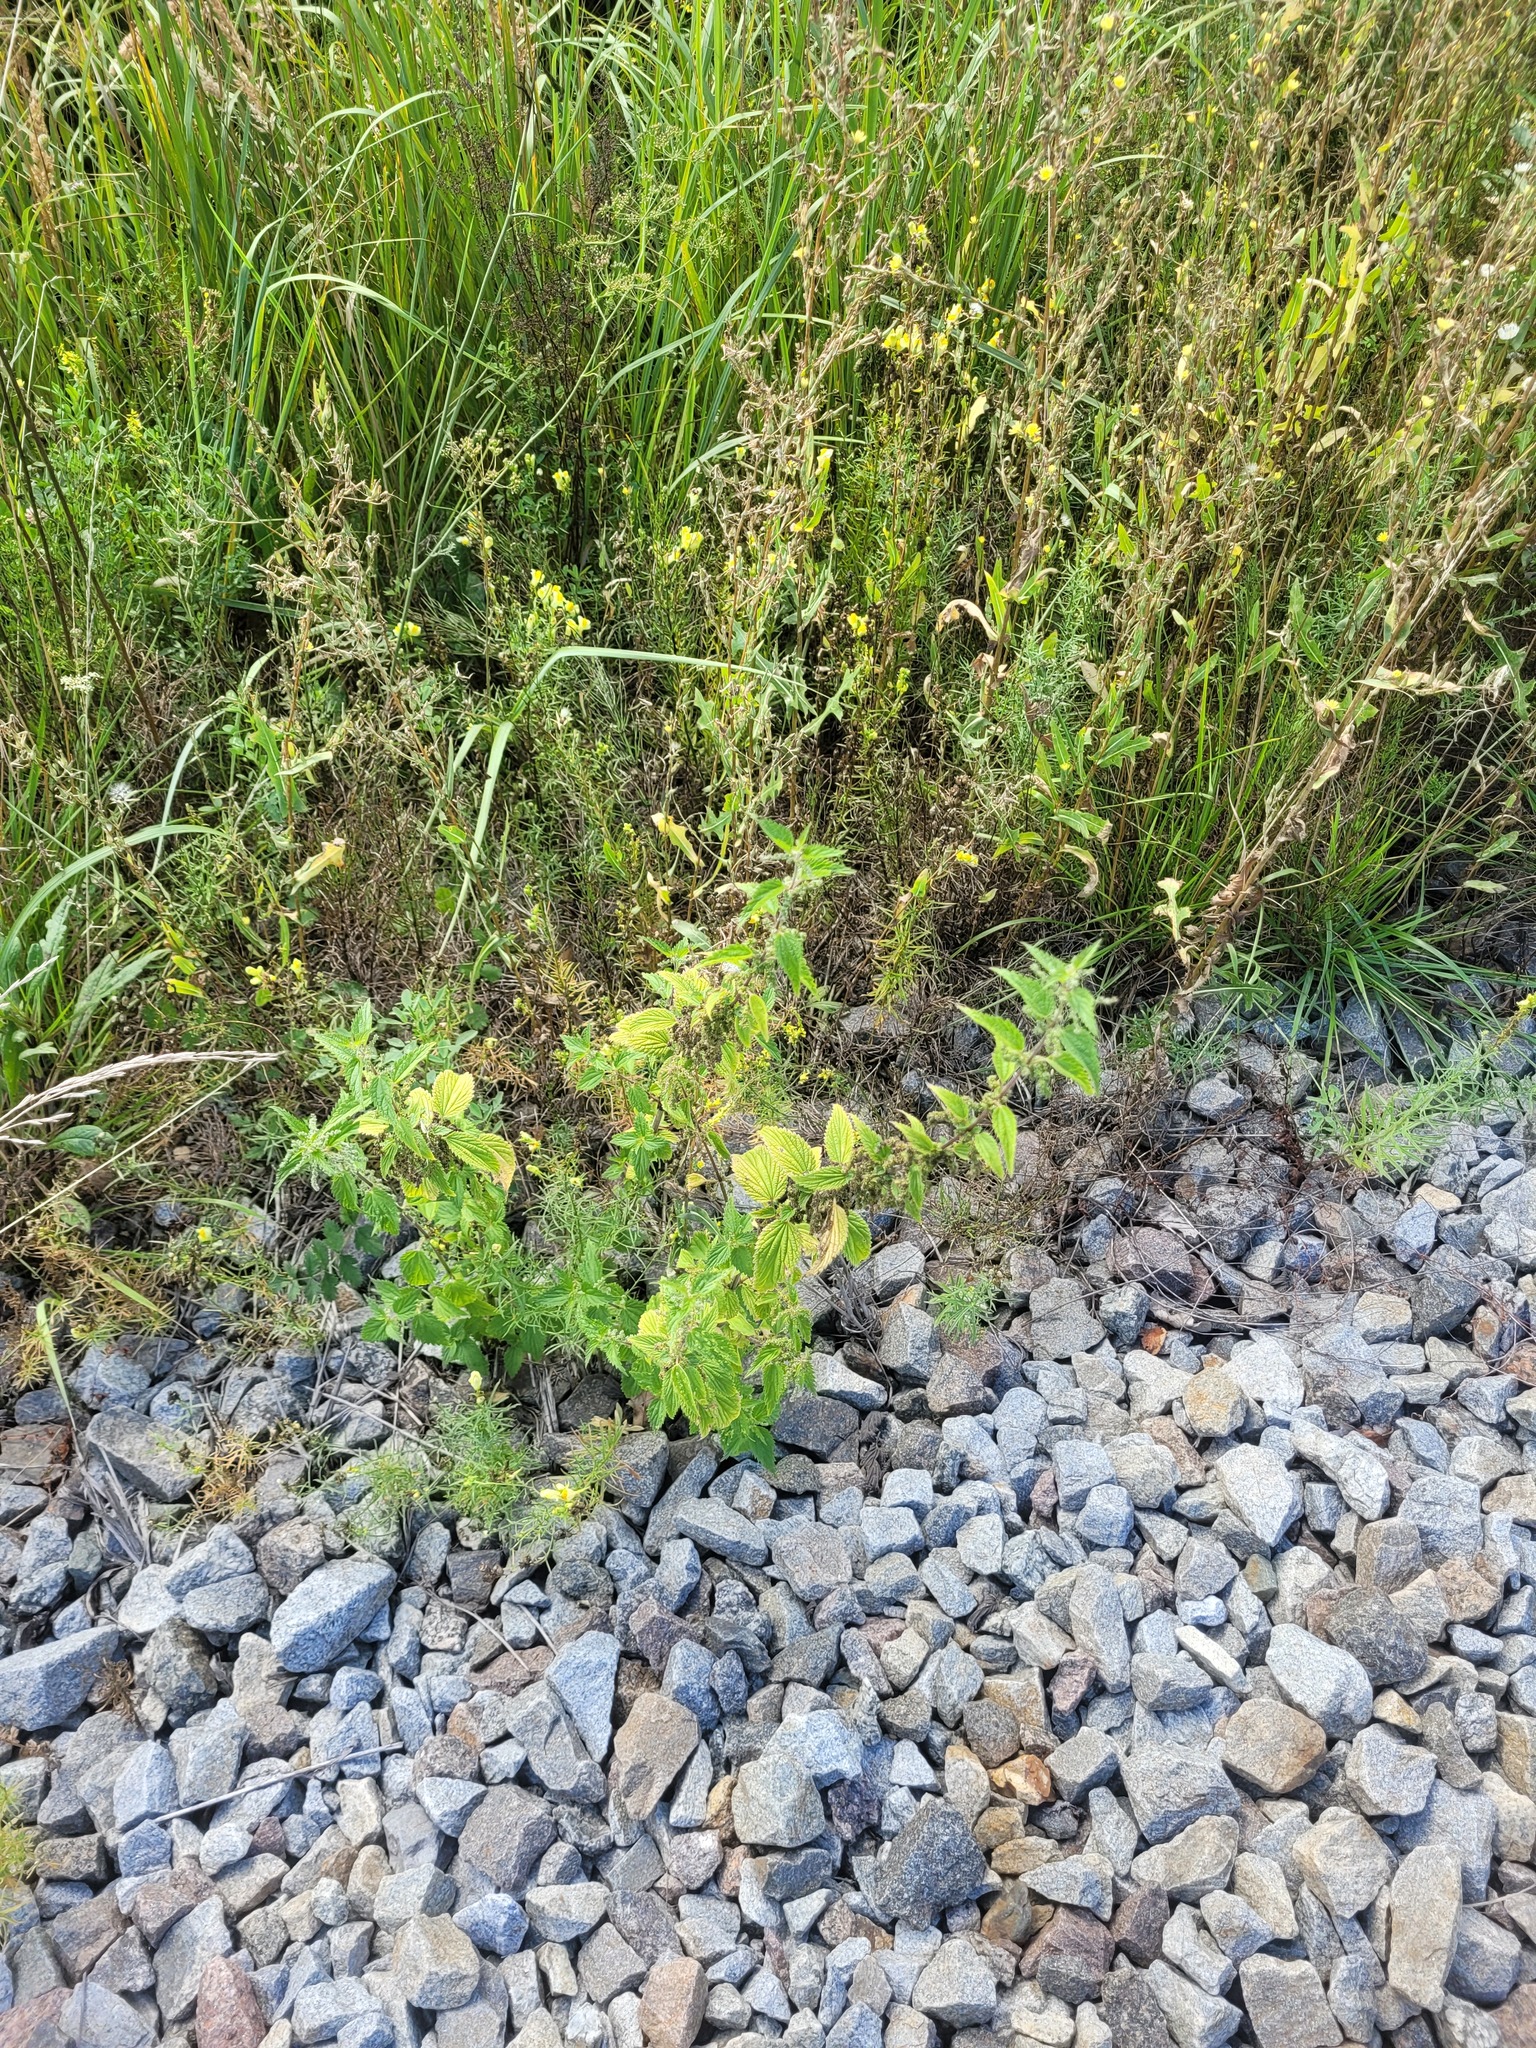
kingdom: Plantae
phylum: Tracheophyta
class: Magnoliopsida
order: Rosales
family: Urticaceae
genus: Urtica
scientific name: Urtica dioica
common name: Common nettle
